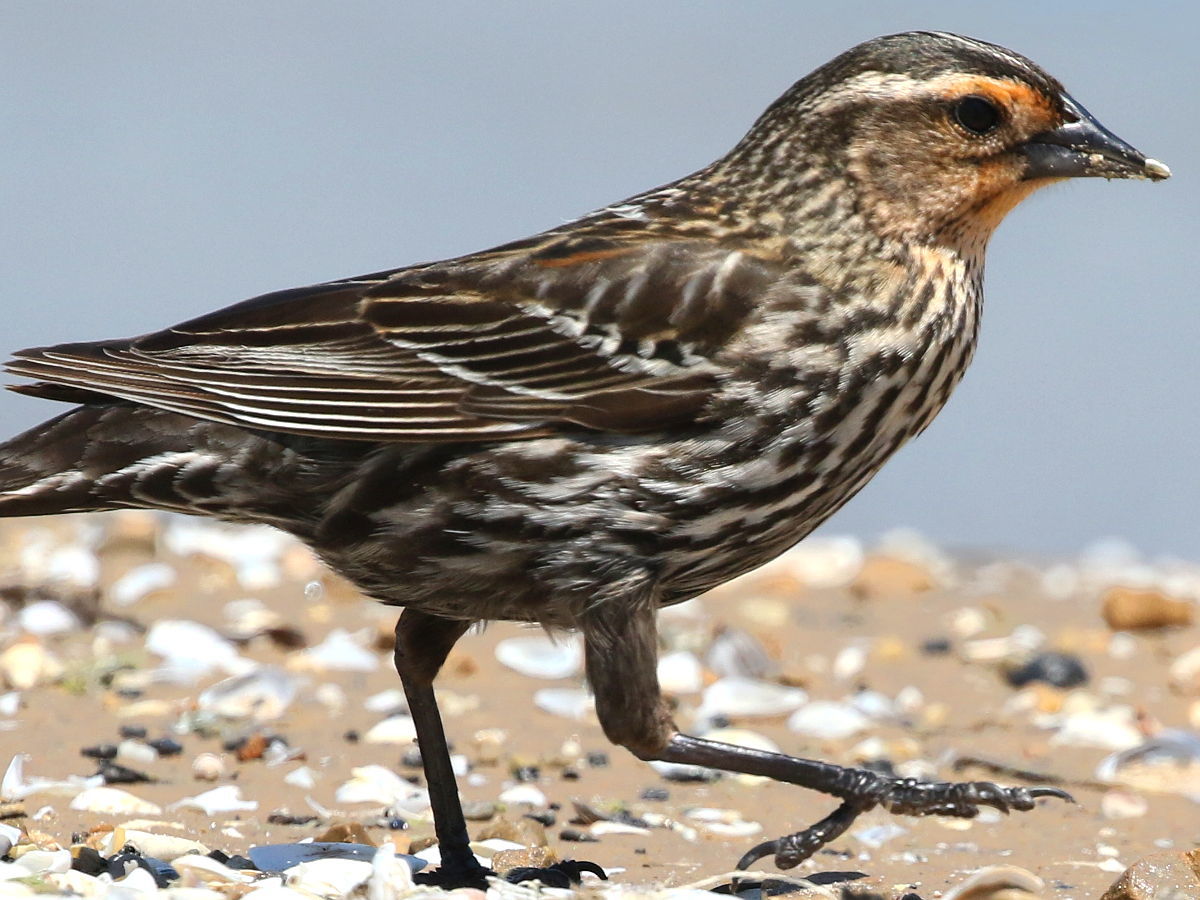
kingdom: Animalia
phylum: Chordata
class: Aves
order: Passeriformes
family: Icteridae
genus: Agelaius
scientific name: Agelaius phoeniceus
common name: Red-winged blackbird
